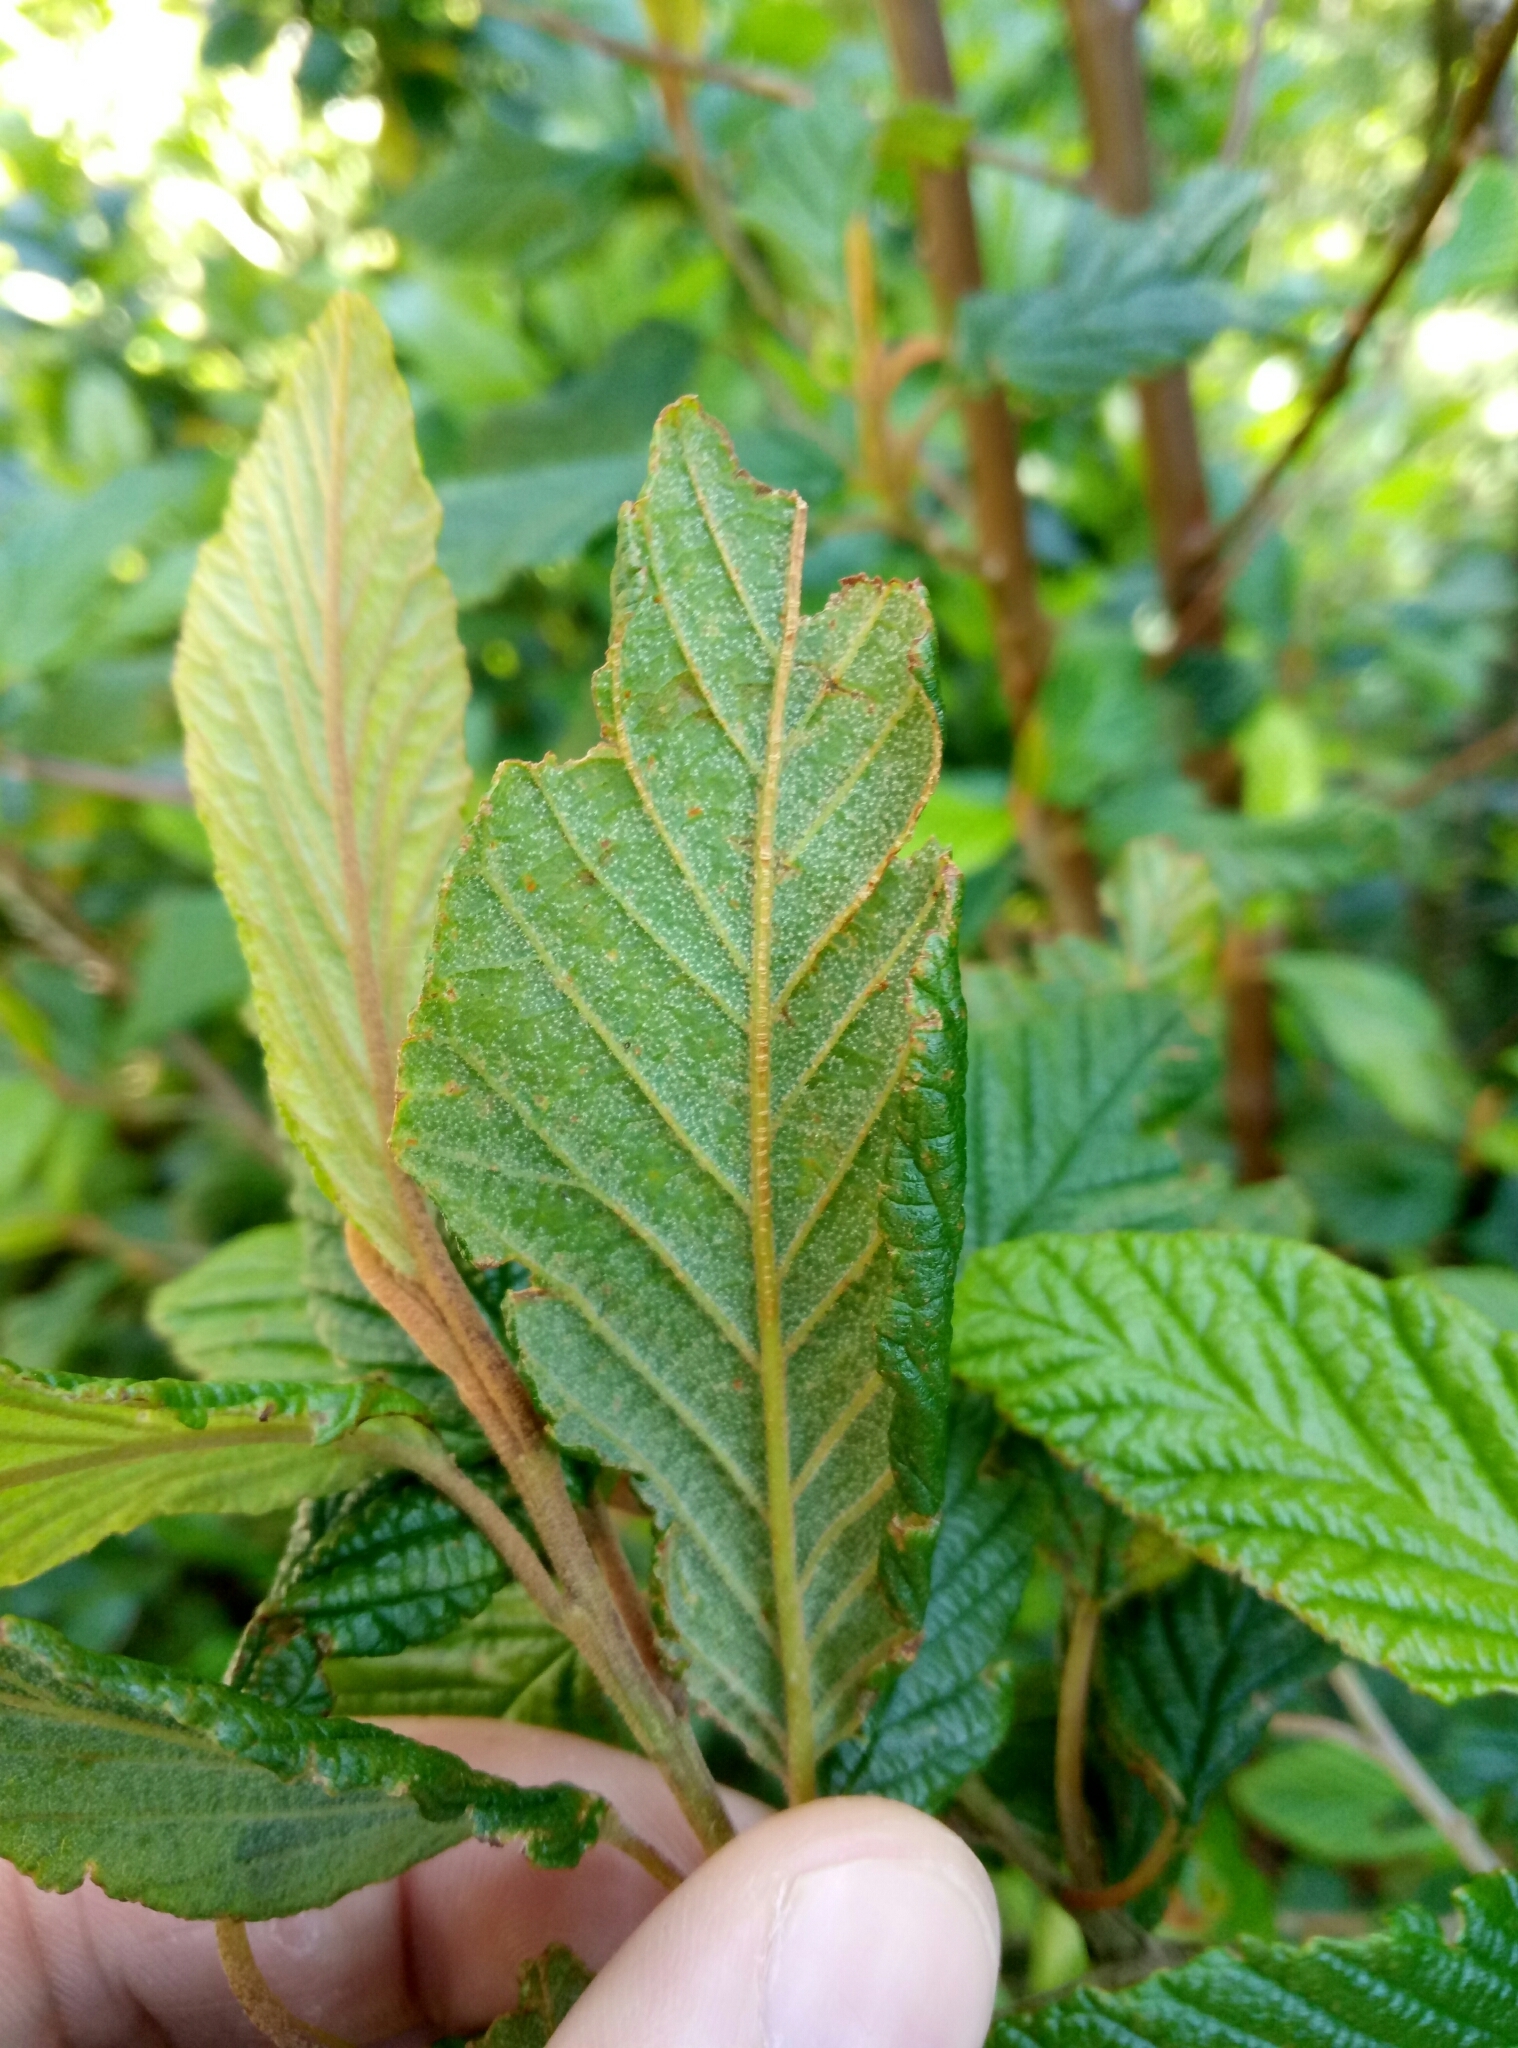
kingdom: Plantae
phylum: Tracheophyta
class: Magnoliopsida
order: Rosales
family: Rhamnaceae
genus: Pomaderris
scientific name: Pomaderris aspera
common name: Hazel pomaderris
